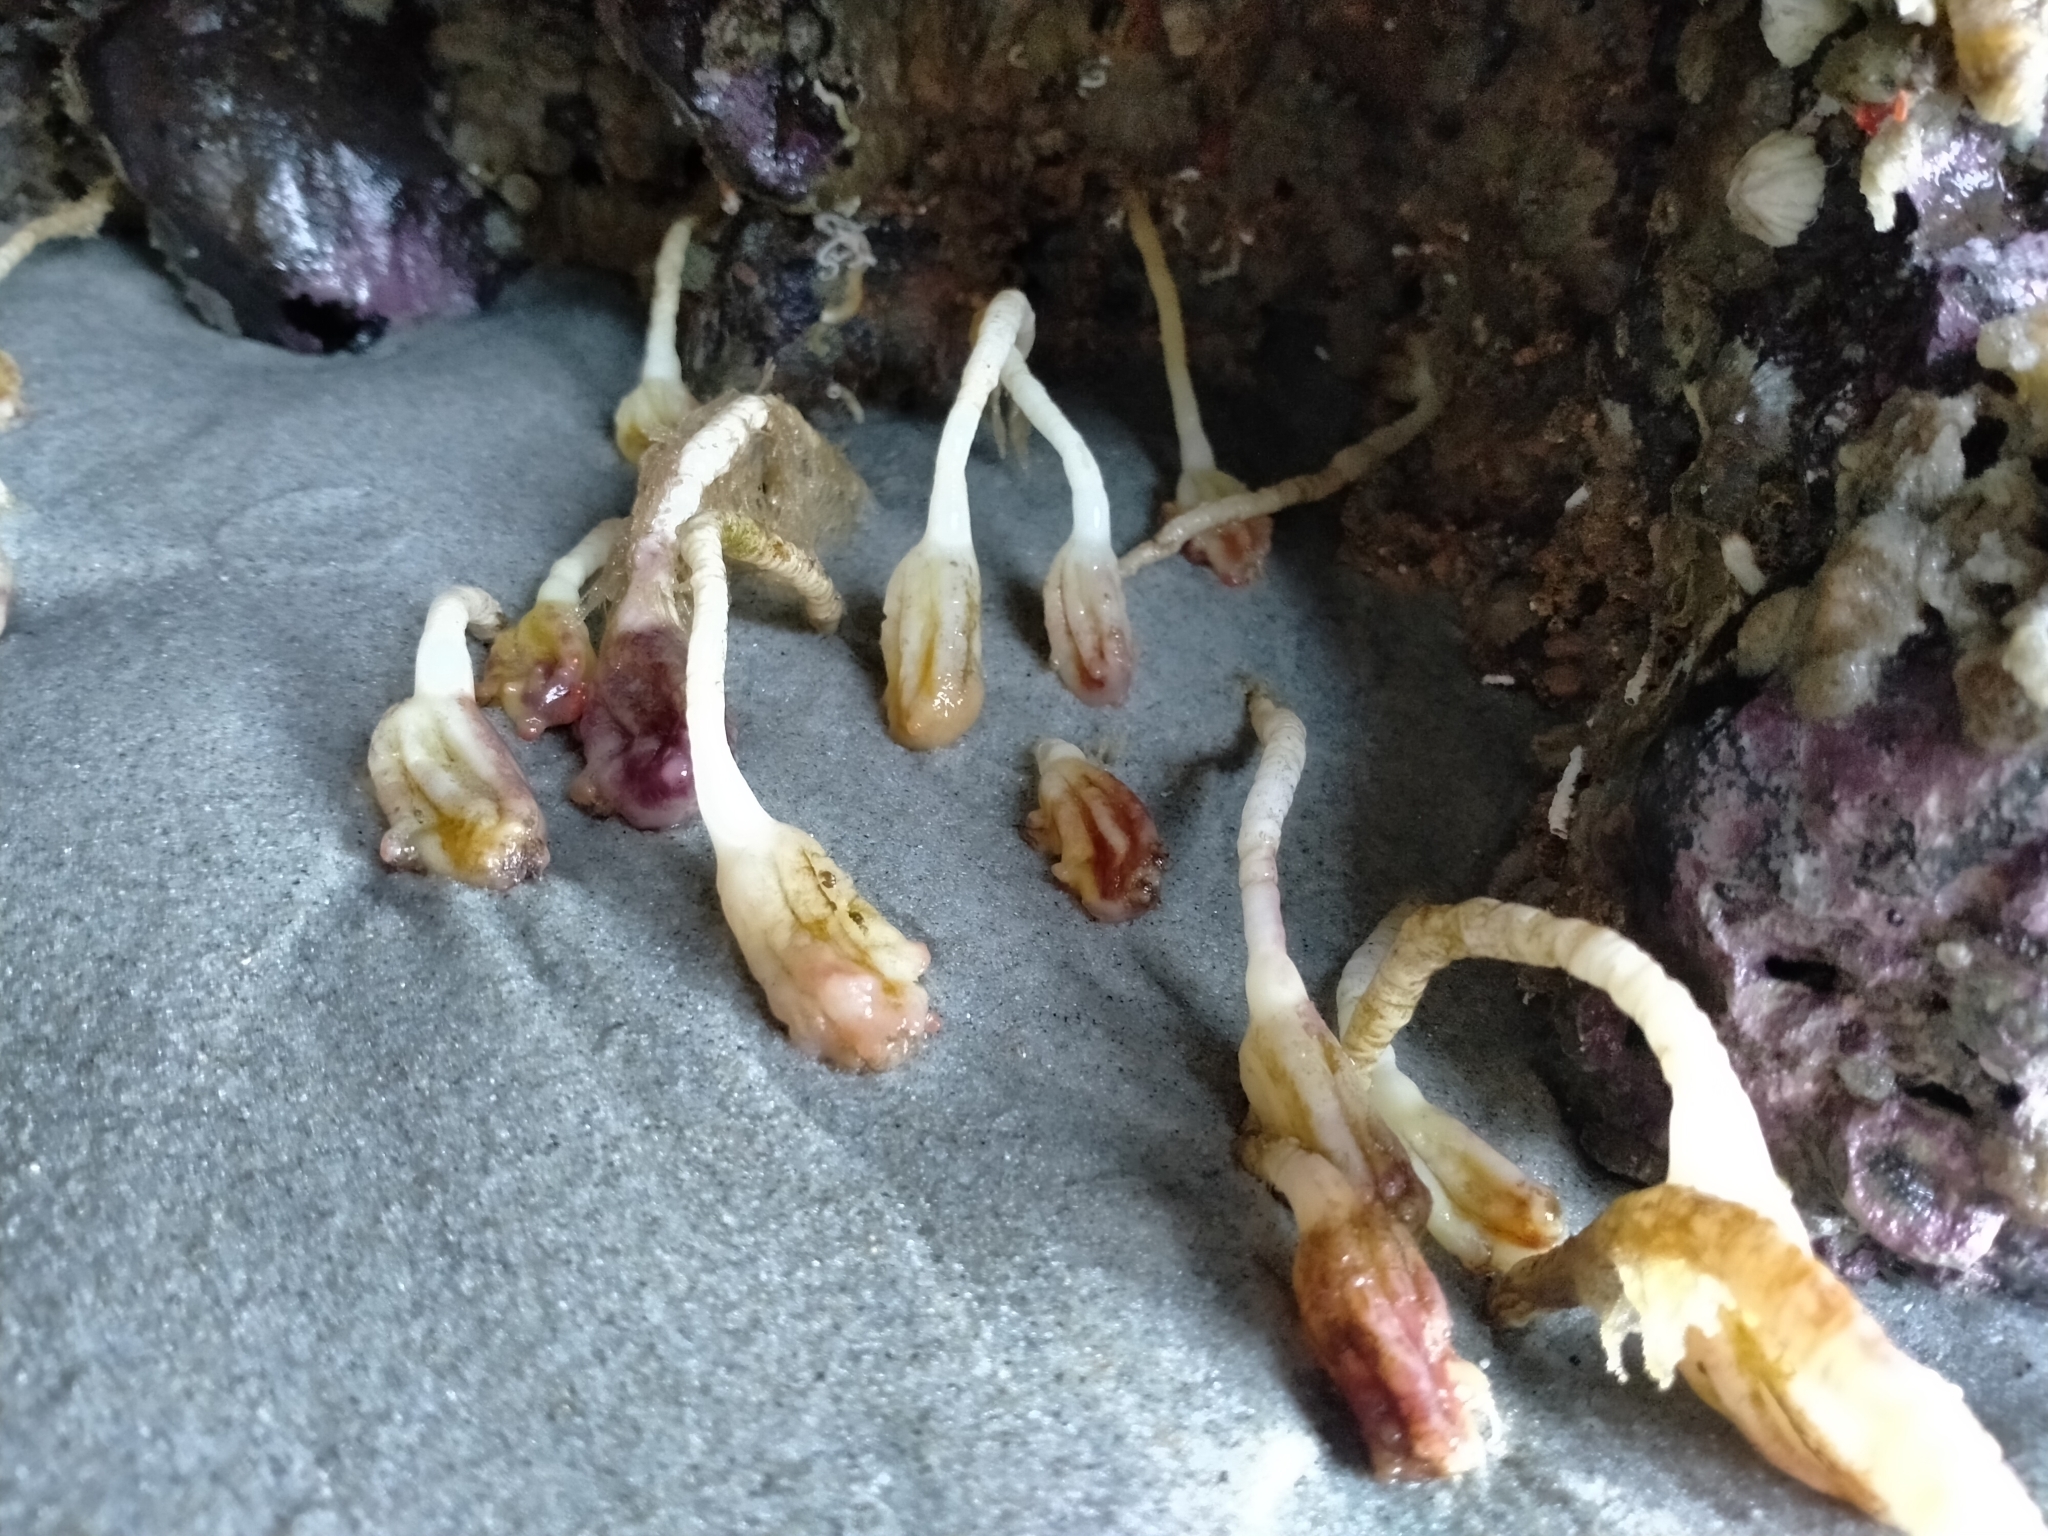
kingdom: Animalia
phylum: Chordata
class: Ascidiacea
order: Stolidobranchia
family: Pyuridae
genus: Pyura
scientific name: Pyura pachydermatina
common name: Sea tulip
